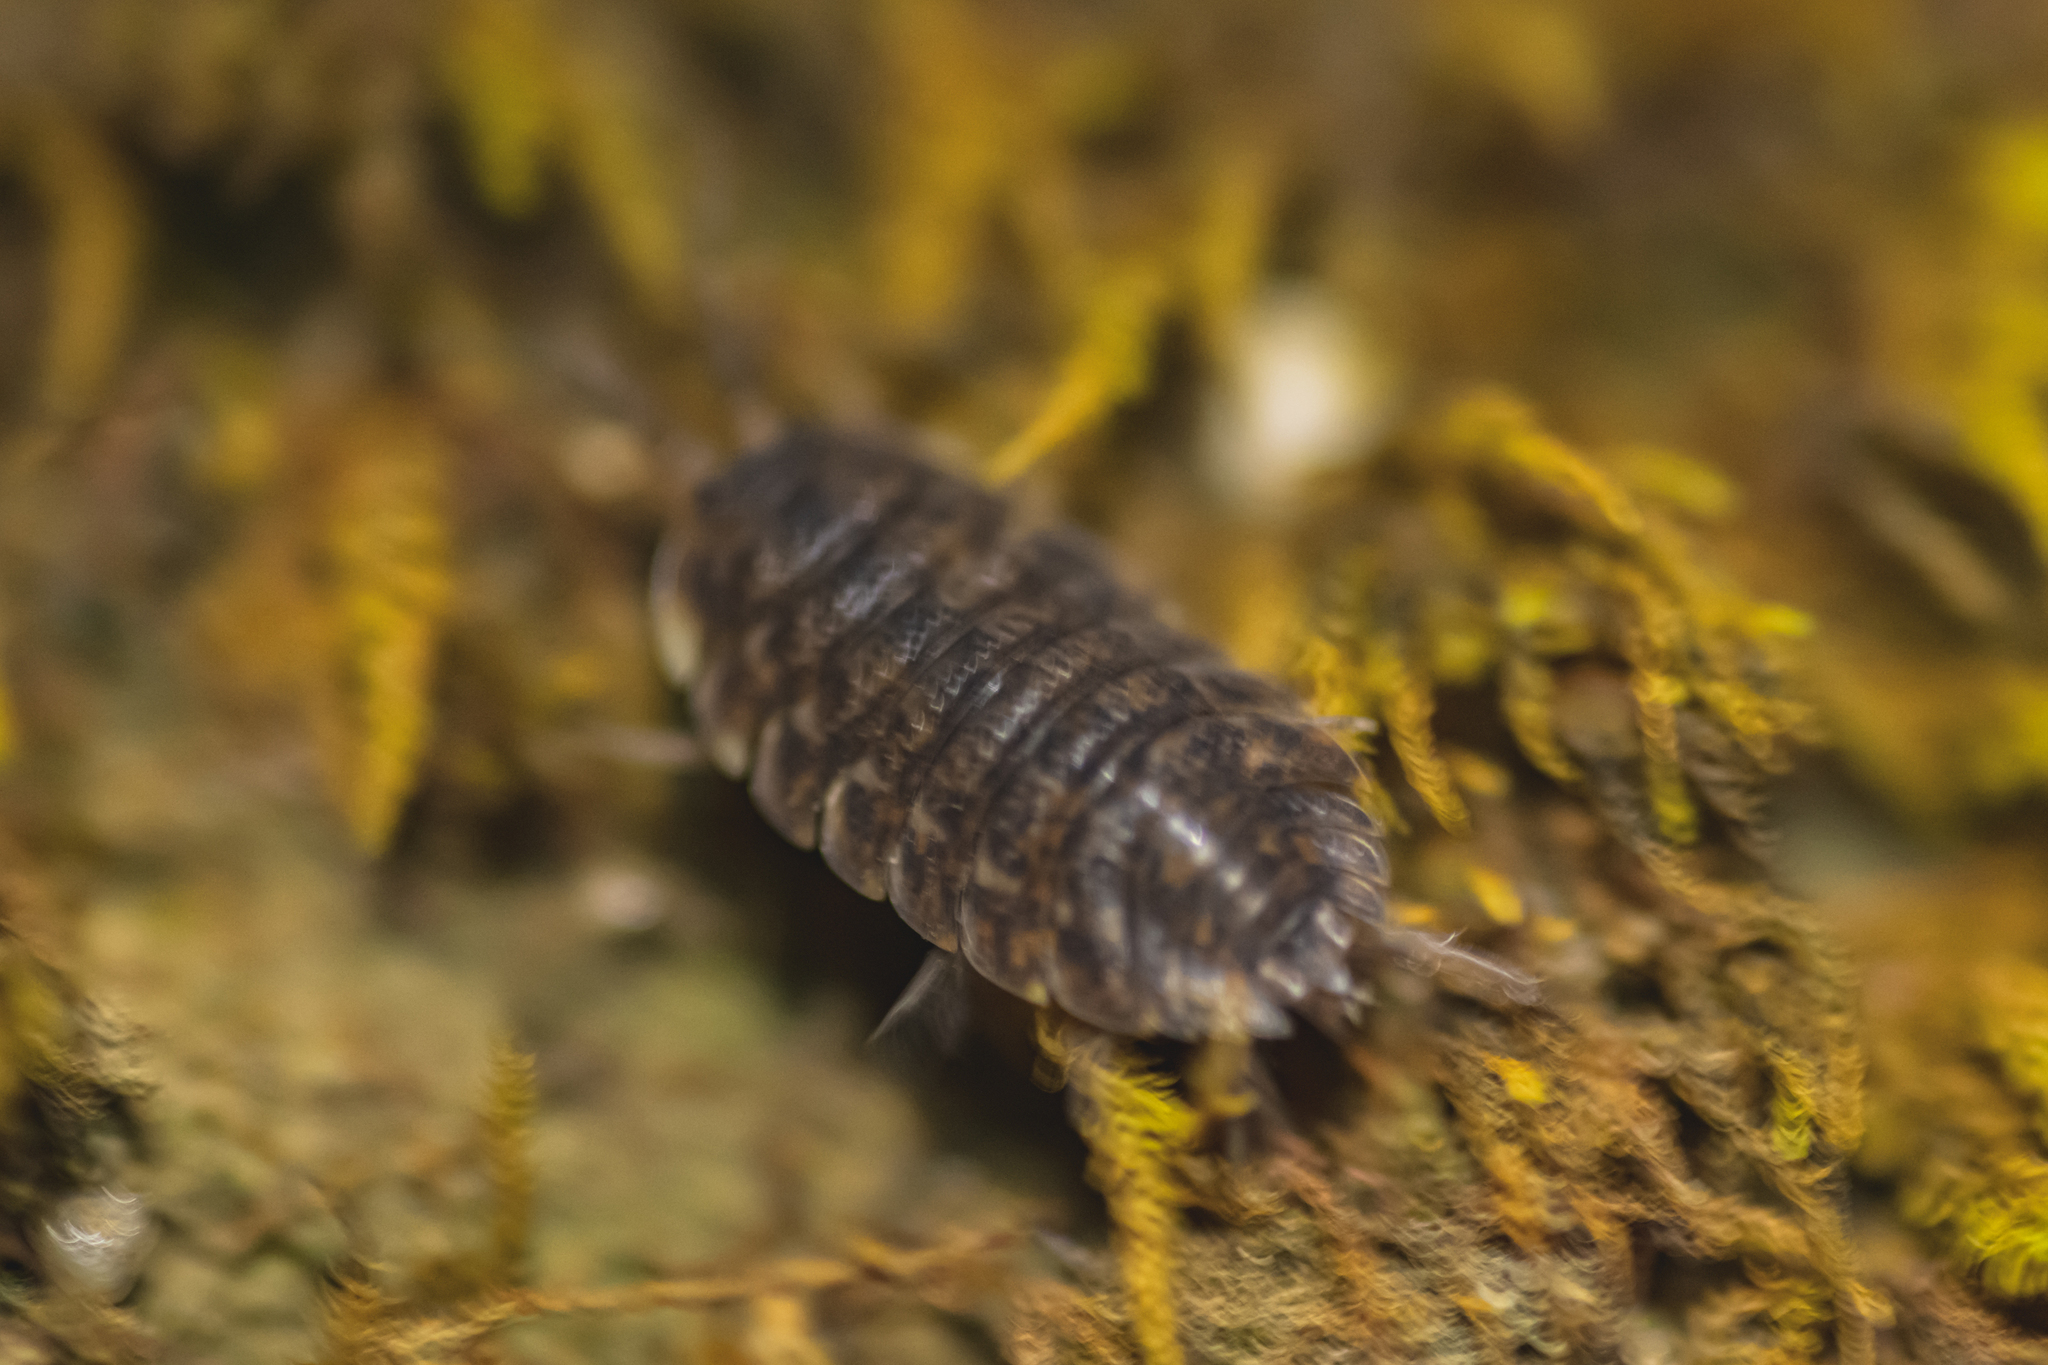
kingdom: Animalia
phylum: Arthropoda
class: Malacostraca
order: Isopoda
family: Trachelipodidae
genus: Trachelipus
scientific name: Trachelipus lutshnikii
